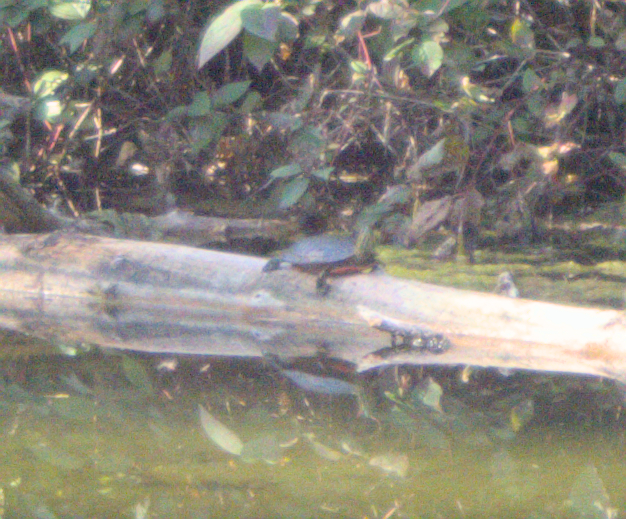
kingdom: Animalia
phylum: Chordata
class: Testudines
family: Emydidae
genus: Chrysemys
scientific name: Chrysemys picta
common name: Painted turtle
